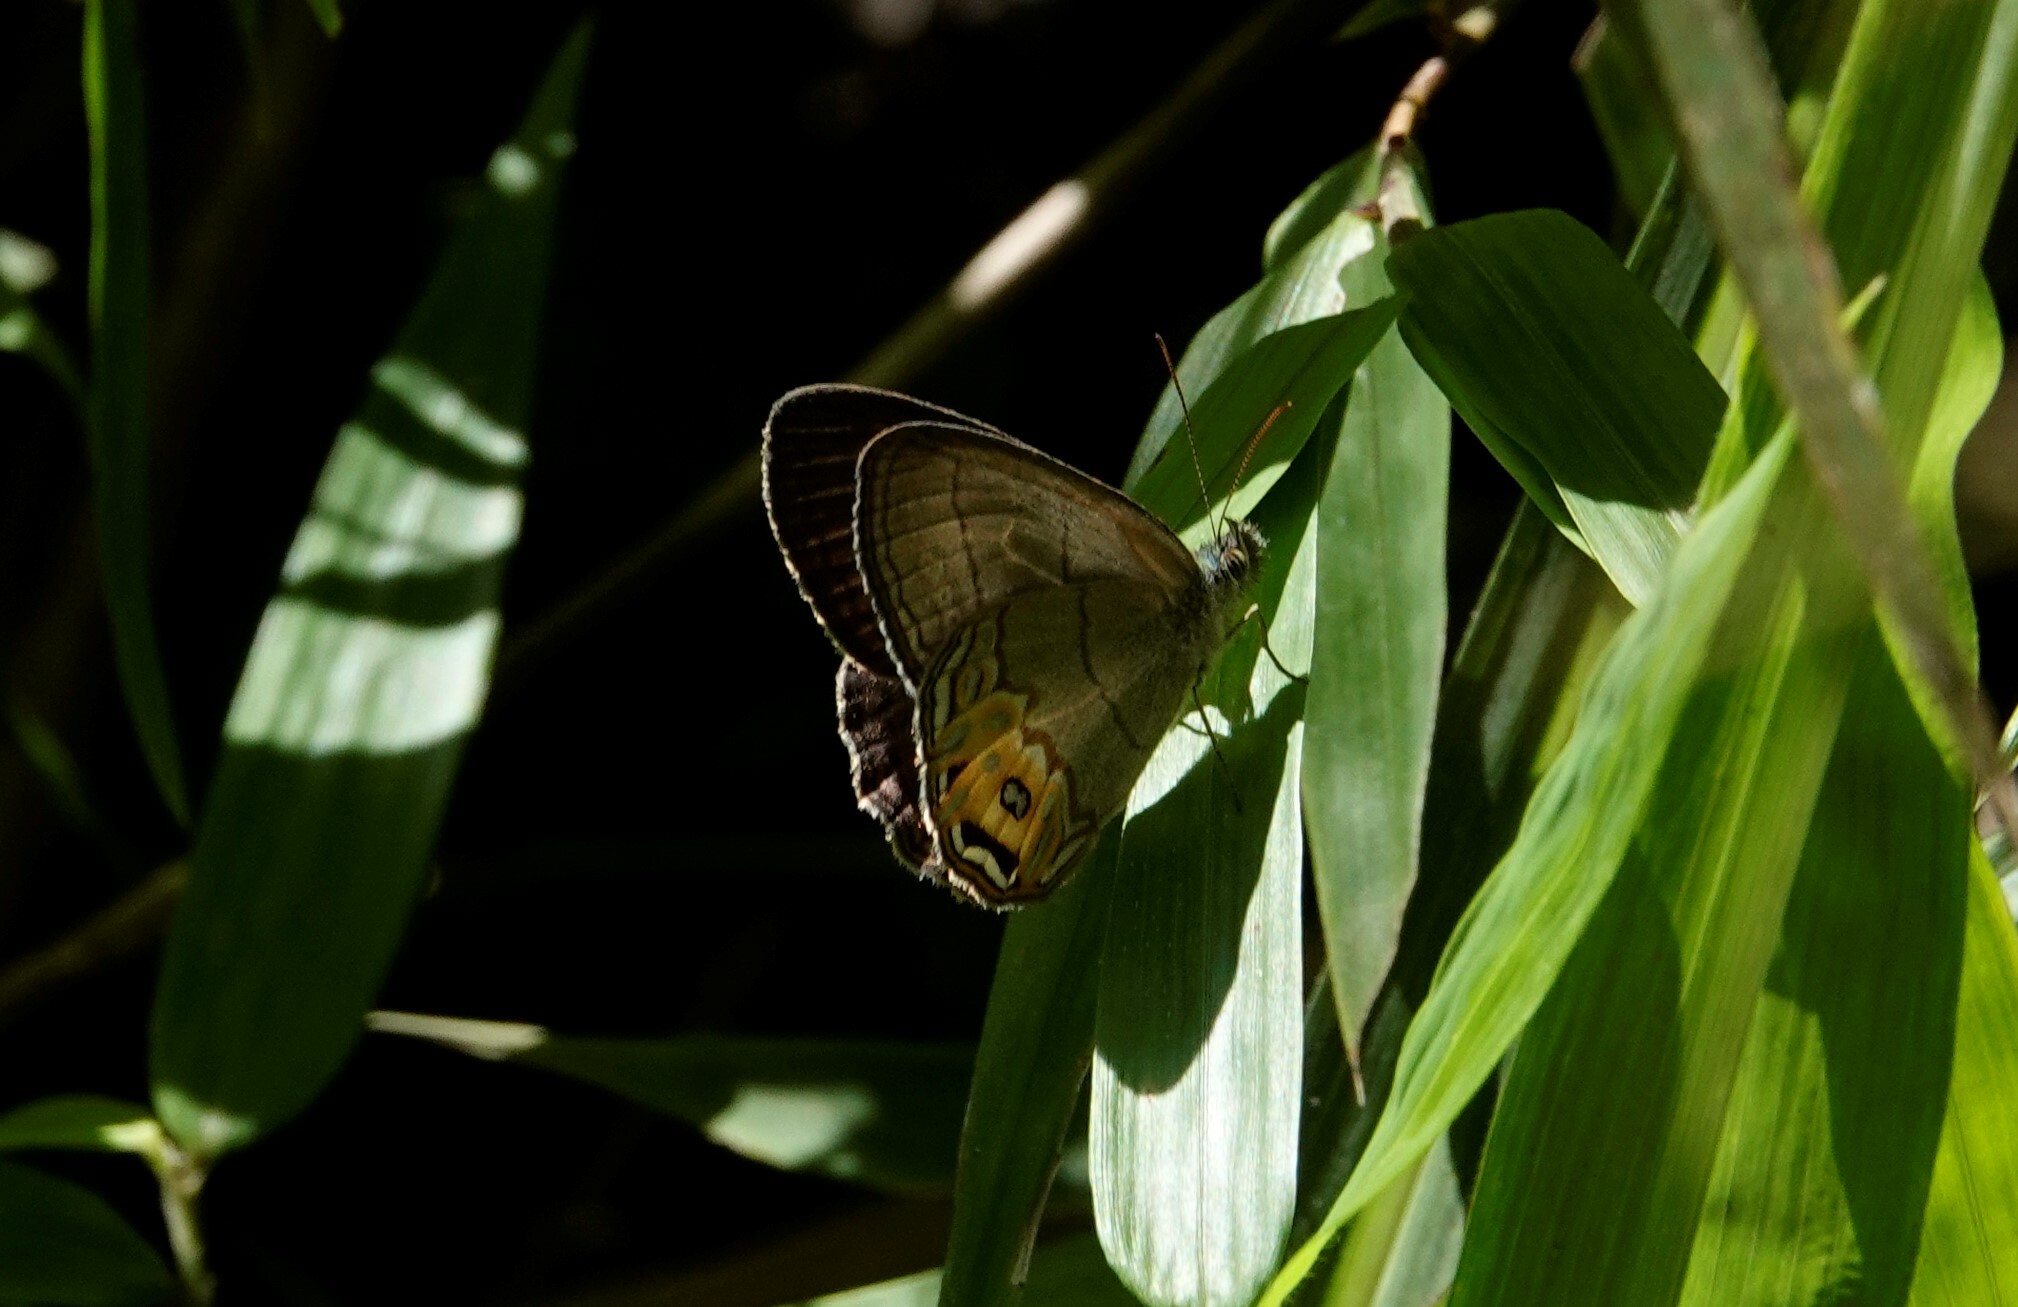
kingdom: Animalia
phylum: Arthropoda
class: Insecta
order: Lepidoptera
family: Nymphalidae
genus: Splendeuptychia
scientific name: Splendeuptychia libitina
